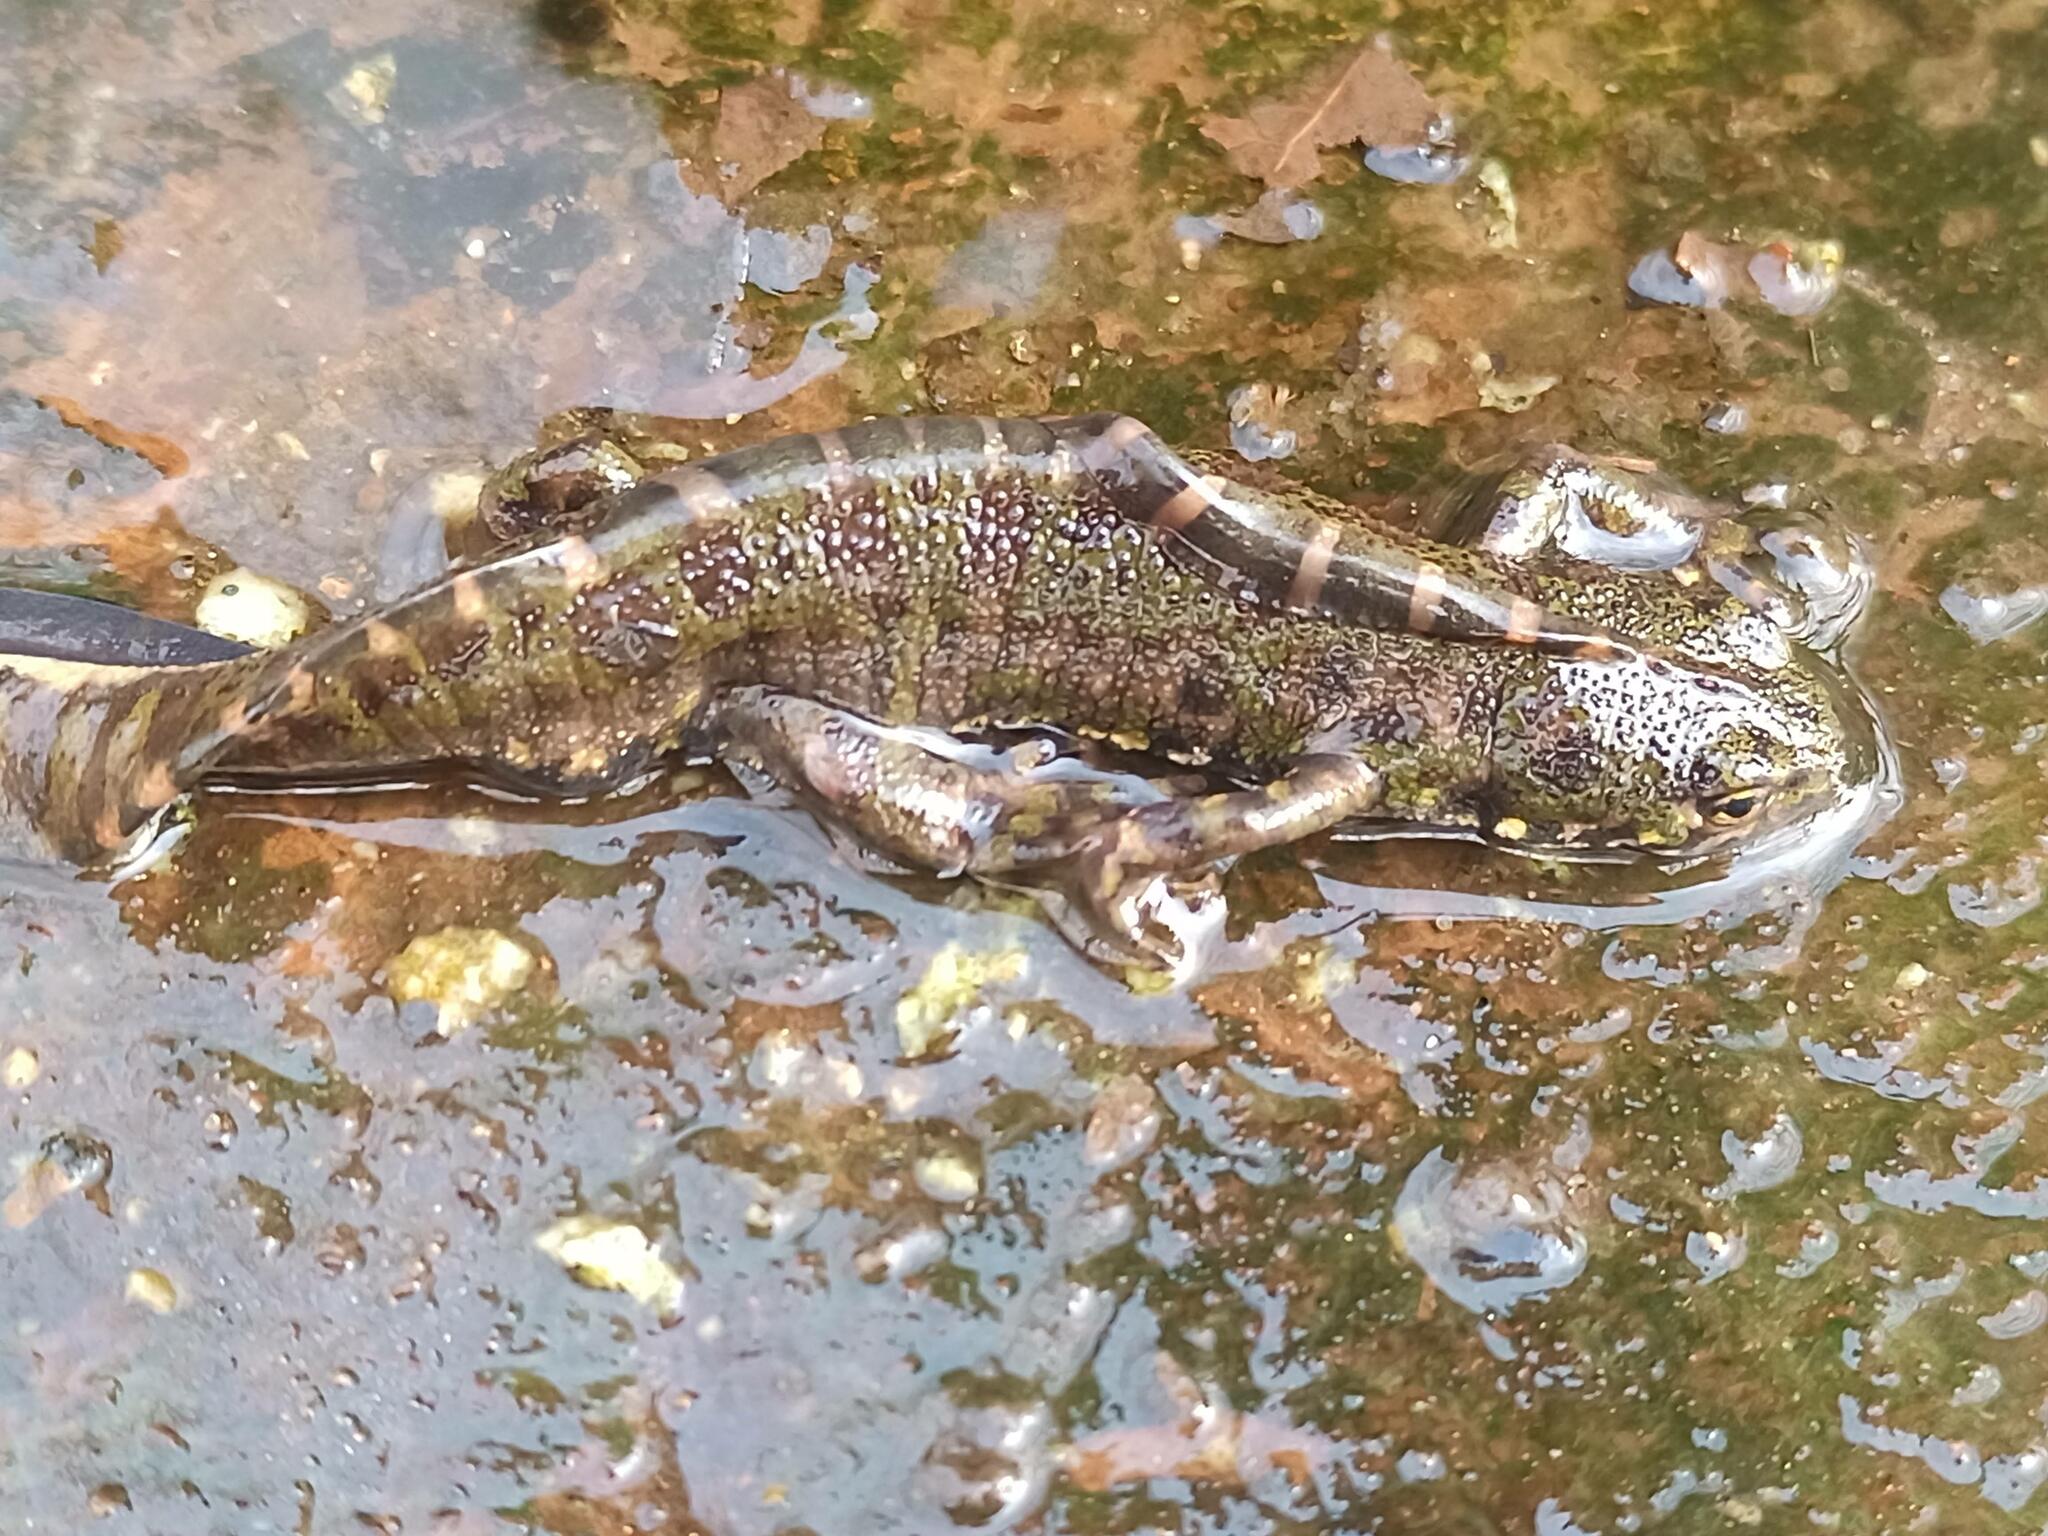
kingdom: Animalia
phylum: Chordata
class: Amphibia
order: Caudata
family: Salamandridae
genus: Triturus
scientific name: Triturus marmoratus
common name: Marbled newt
